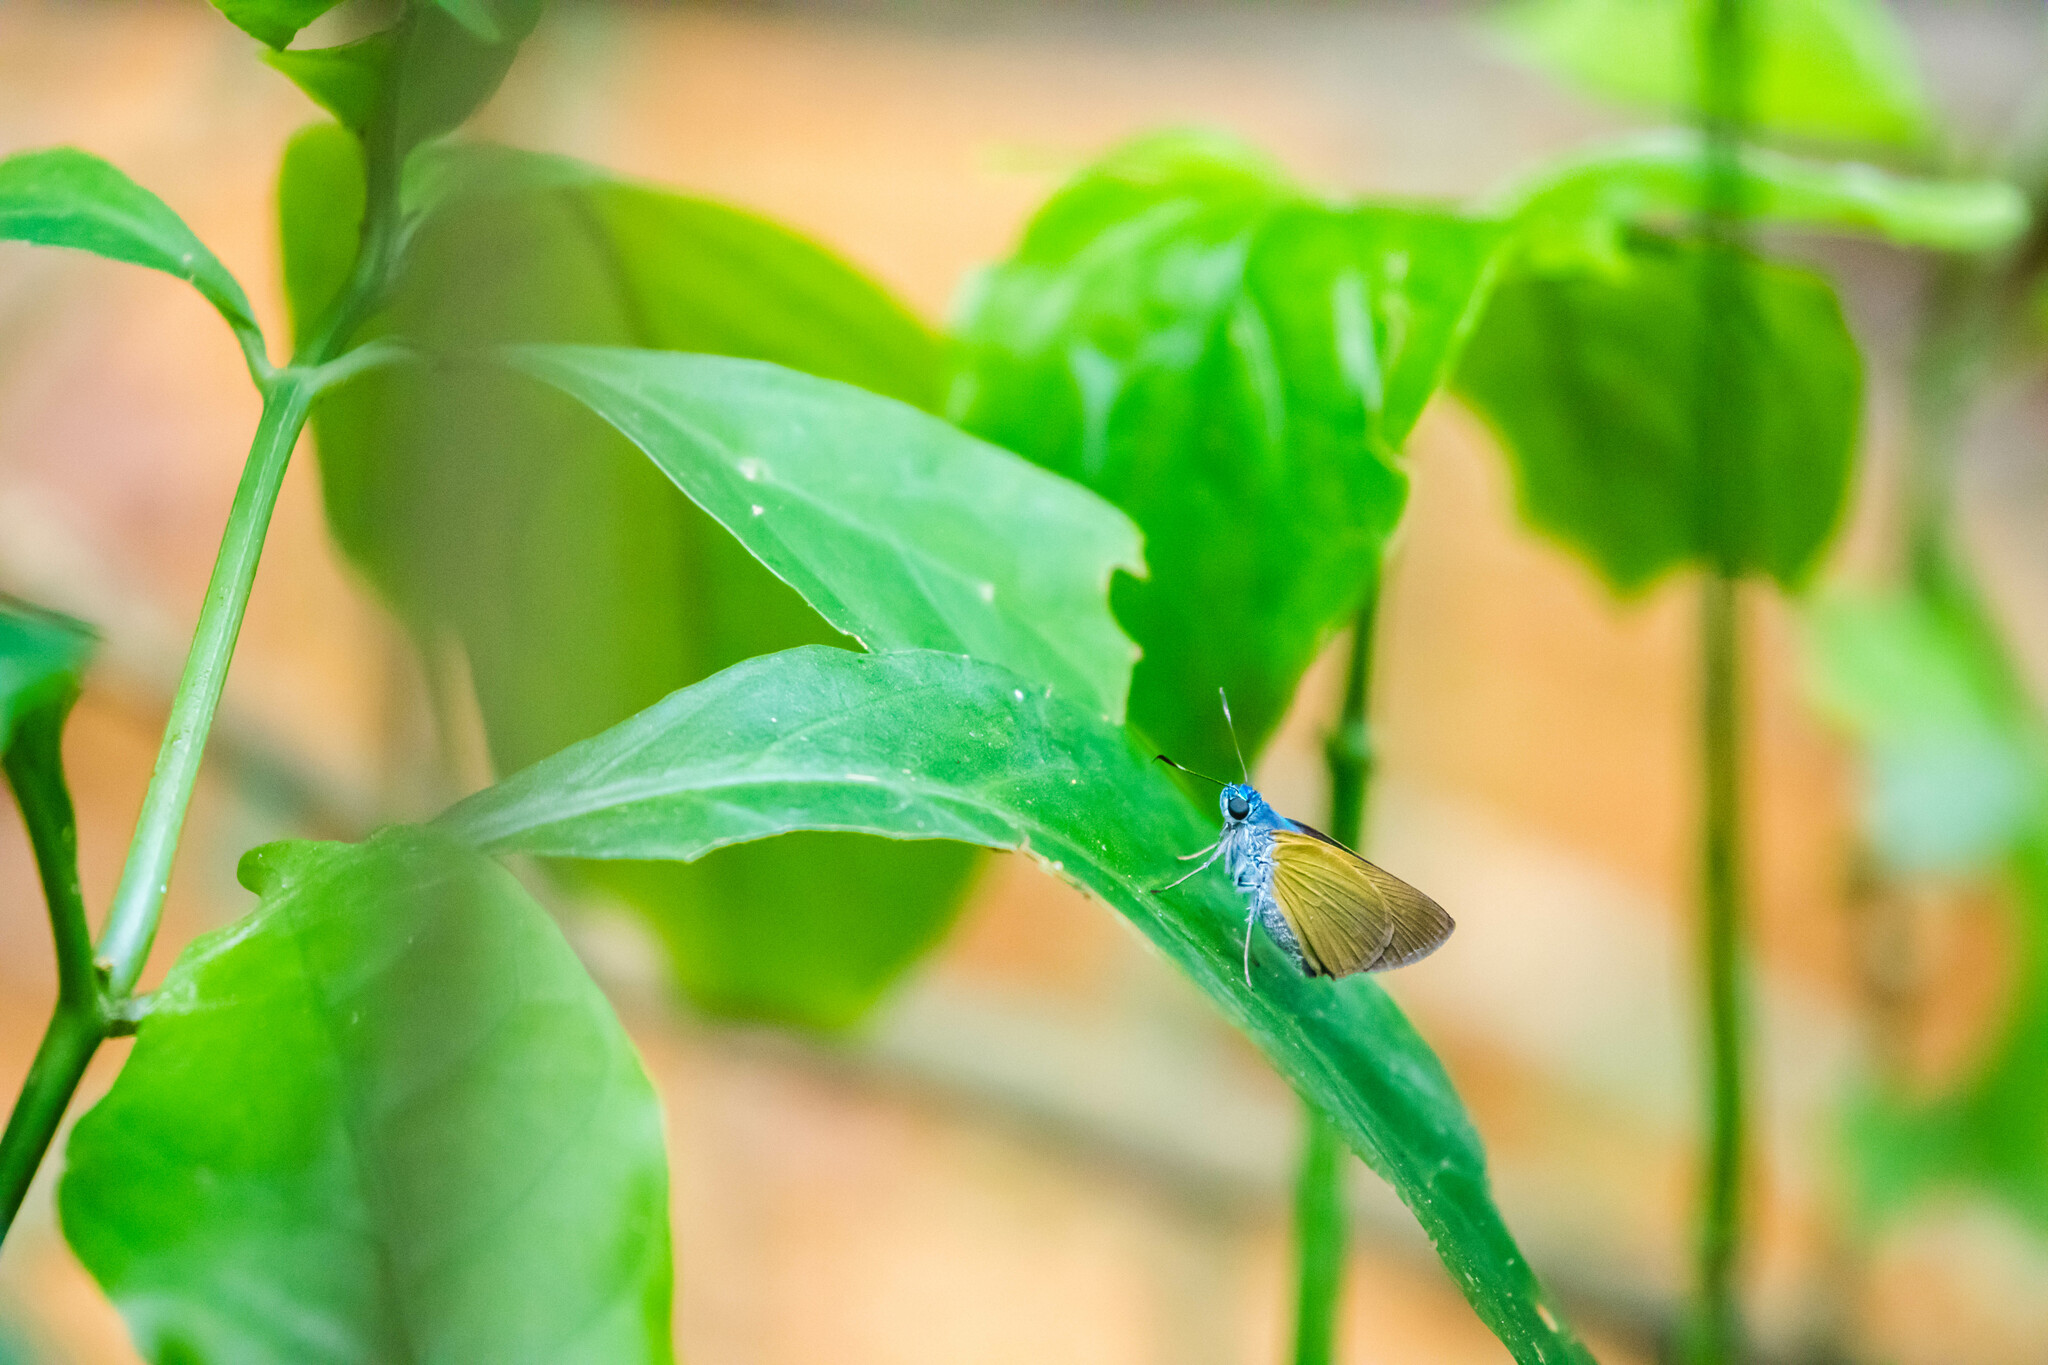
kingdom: Animalia
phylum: Arthropoda
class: Insecta
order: Lepidoptera
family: Hesperiidae
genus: Onophas
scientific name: Onophas columbaria
